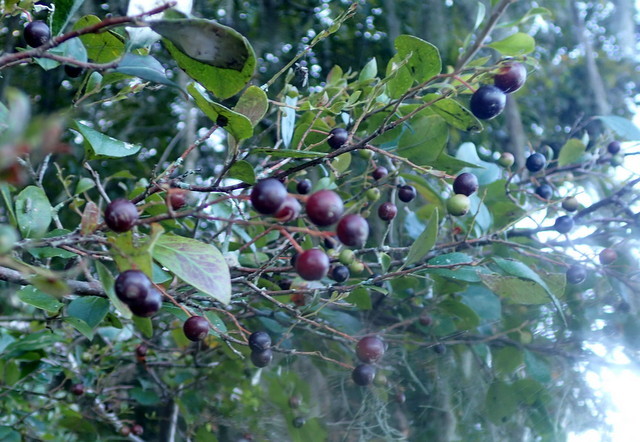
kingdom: Plantae
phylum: Tracheophyta
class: Magnoliopsida
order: Ericales
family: Ericaceae
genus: Vaccinium
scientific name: Vaccinium arboreum
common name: Farkleberry
